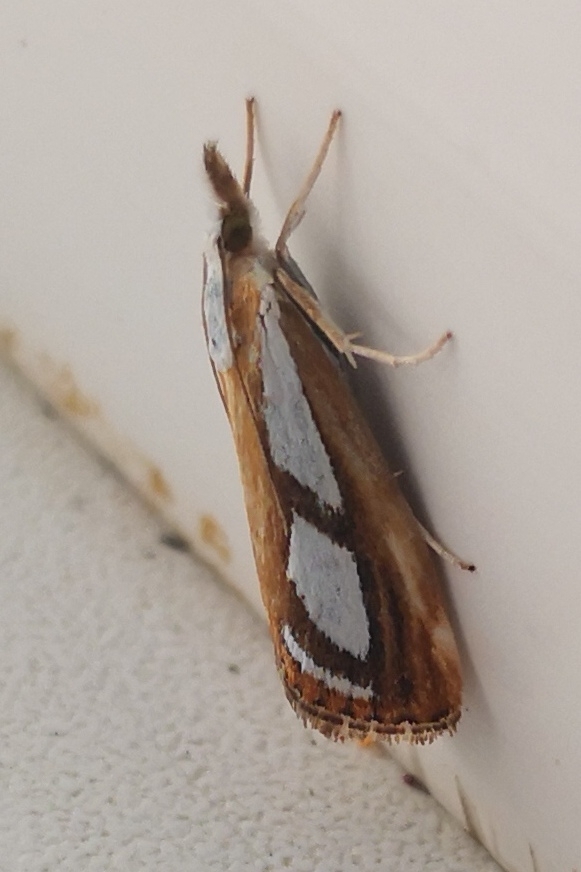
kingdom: Animalia
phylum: Arthropoda
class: Insecta
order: Lepidoptera
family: Crambidae
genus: Catoptria
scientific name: Catoptria
